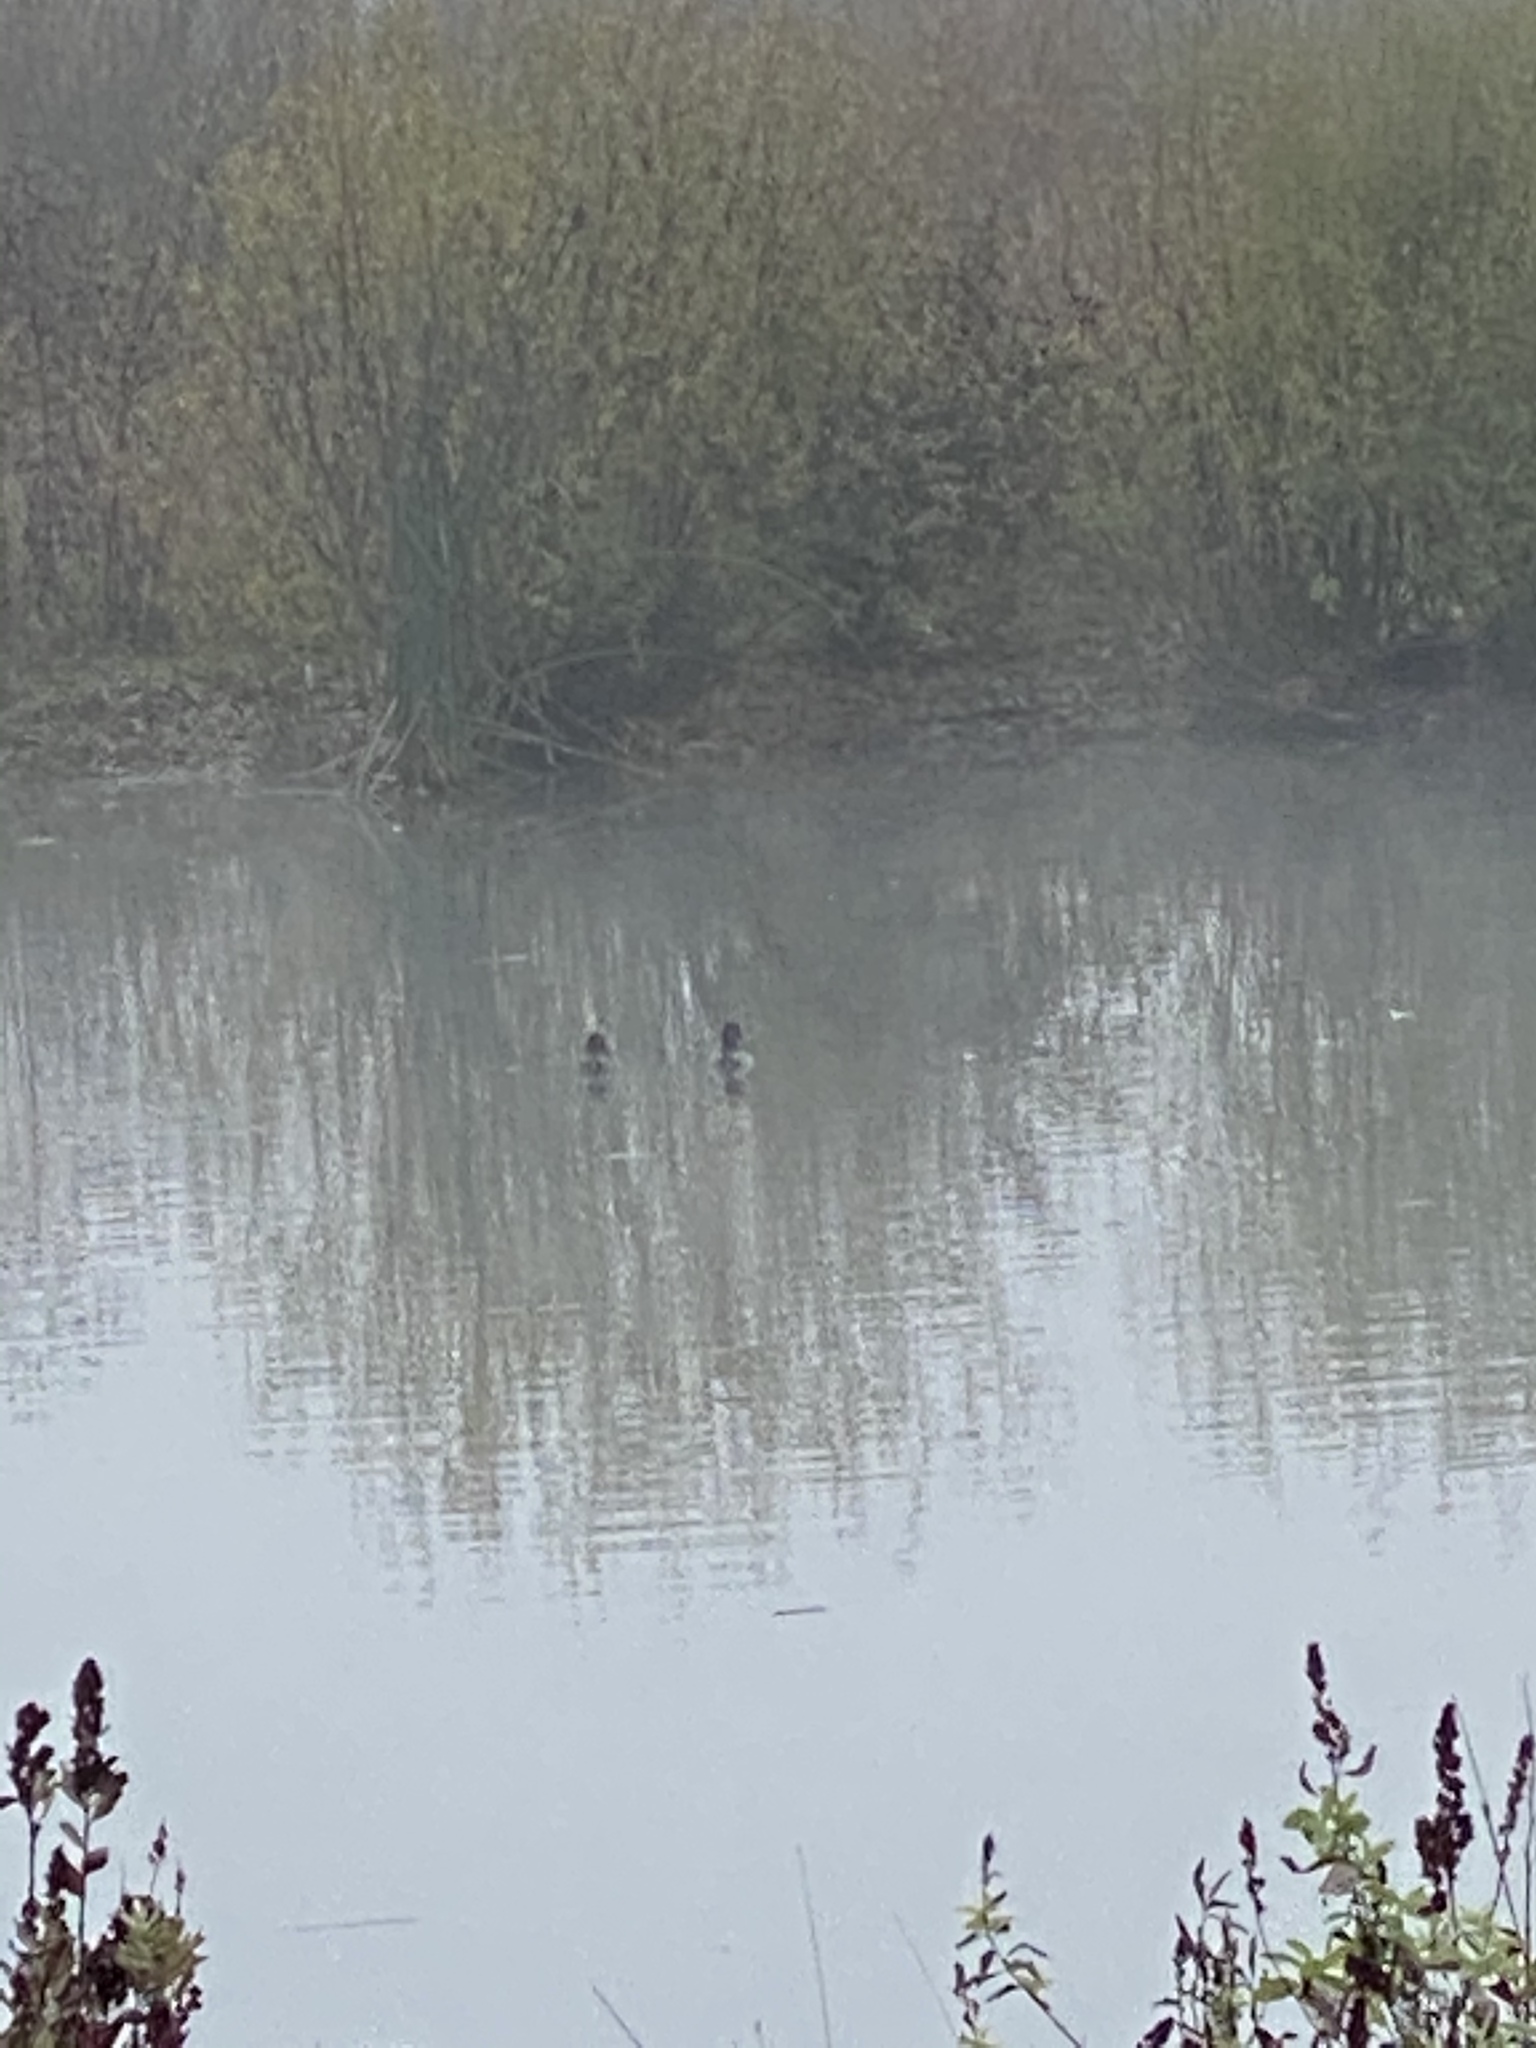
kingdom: Animalia
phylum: Chordata
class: Aves
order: Anseriformes
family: Anatidae
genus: Aythya
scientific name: Aythya collaris
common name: Ring-necked duck
